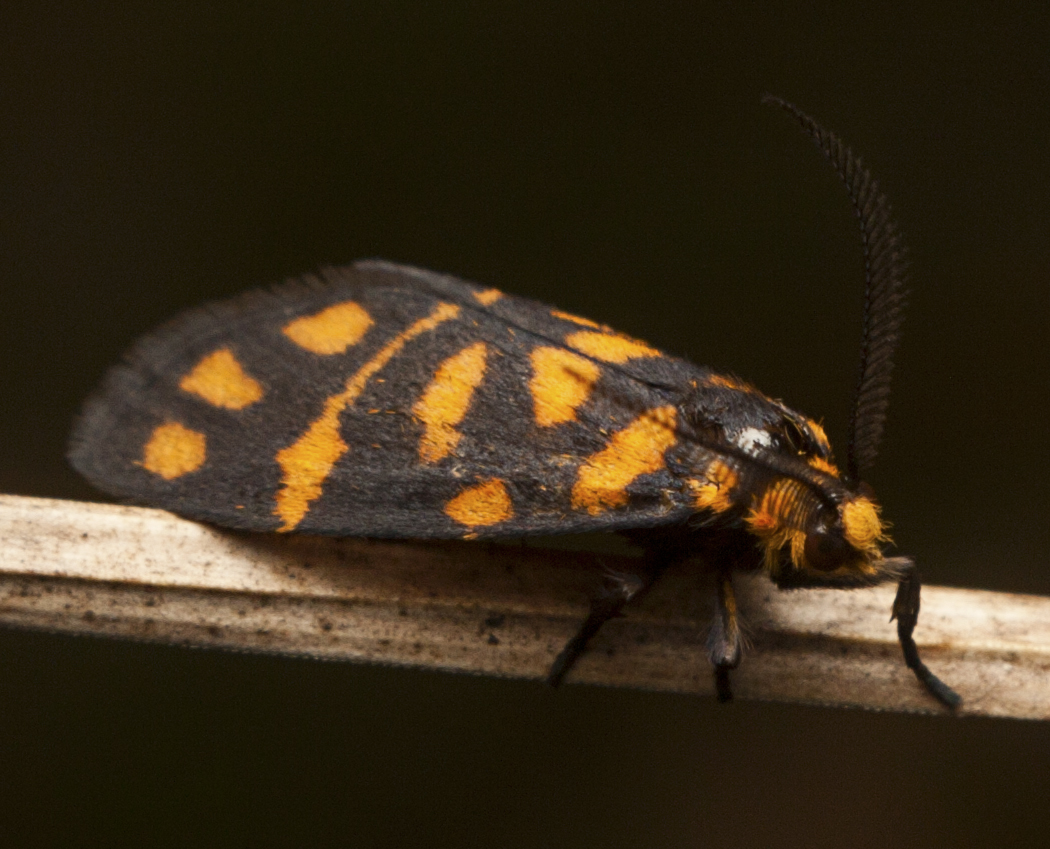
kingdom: Animalia
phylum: Arthropoda
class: Insecta
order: Lepidoptera
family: Erebidae
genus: Asura
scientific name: Asura lydia
